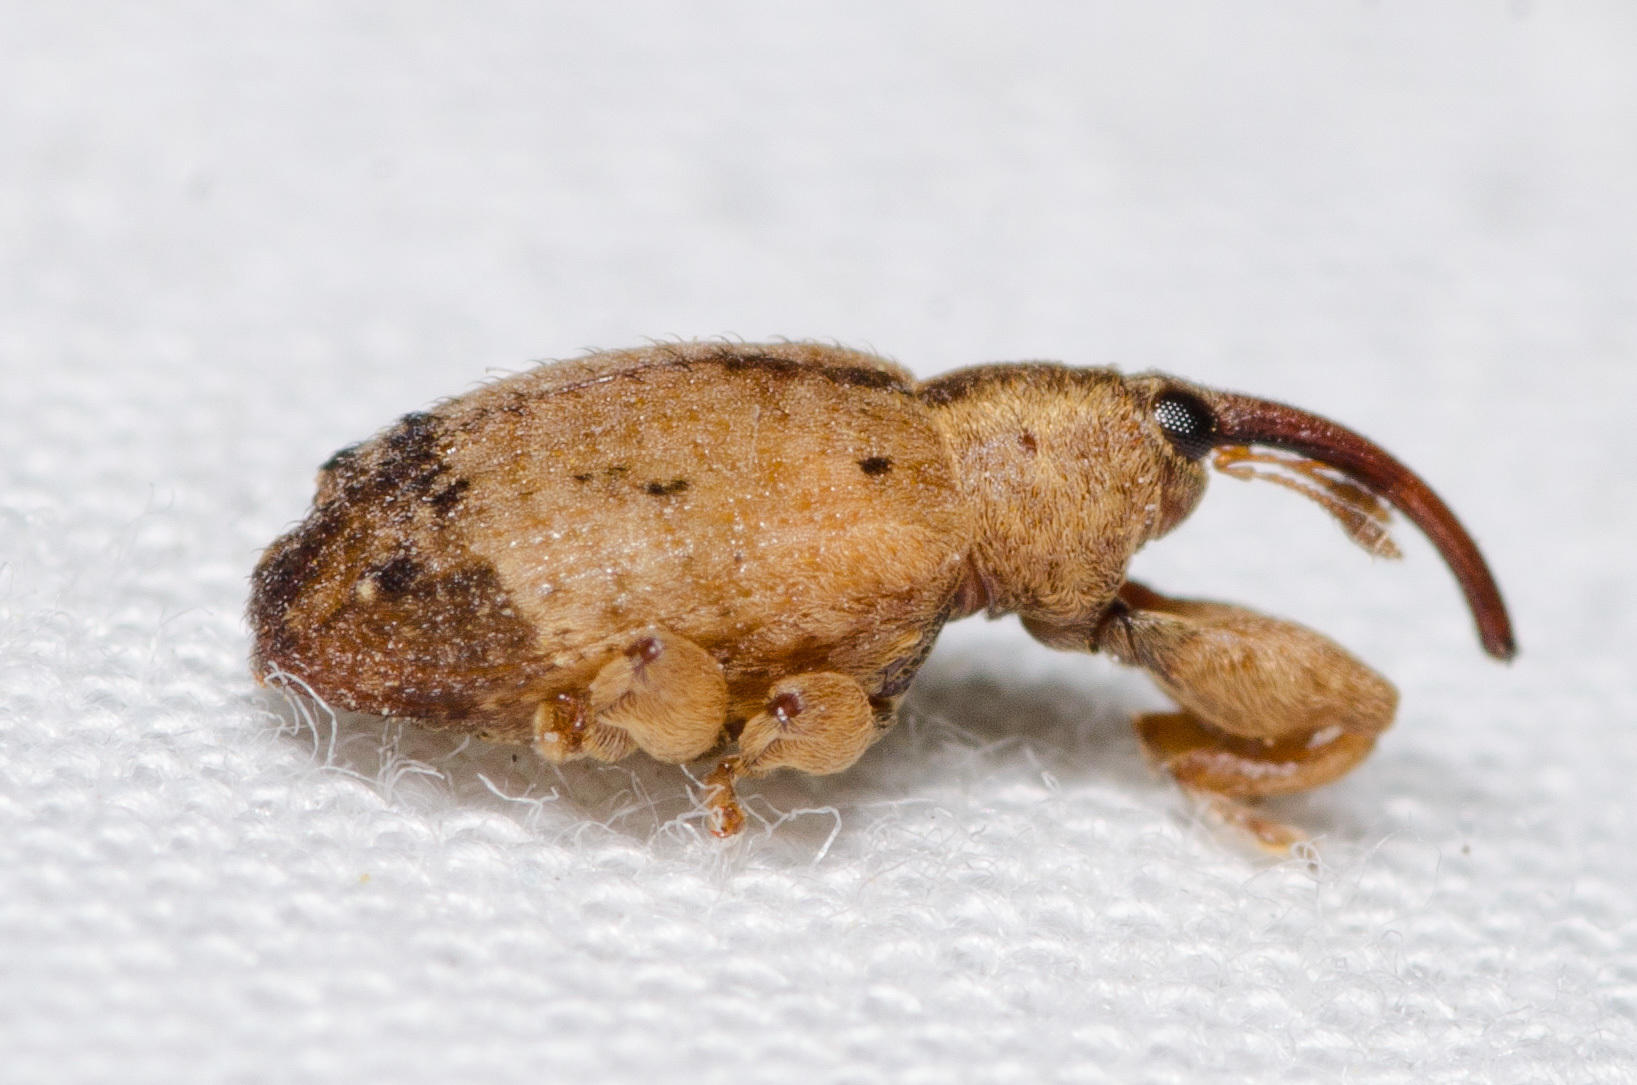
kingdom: Animalia
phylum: Arthropoda
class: Insecta
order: Coleoptera
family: Curculionidae
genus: Ochyromera
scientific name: Ochyromera ligustri
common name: Weevil
